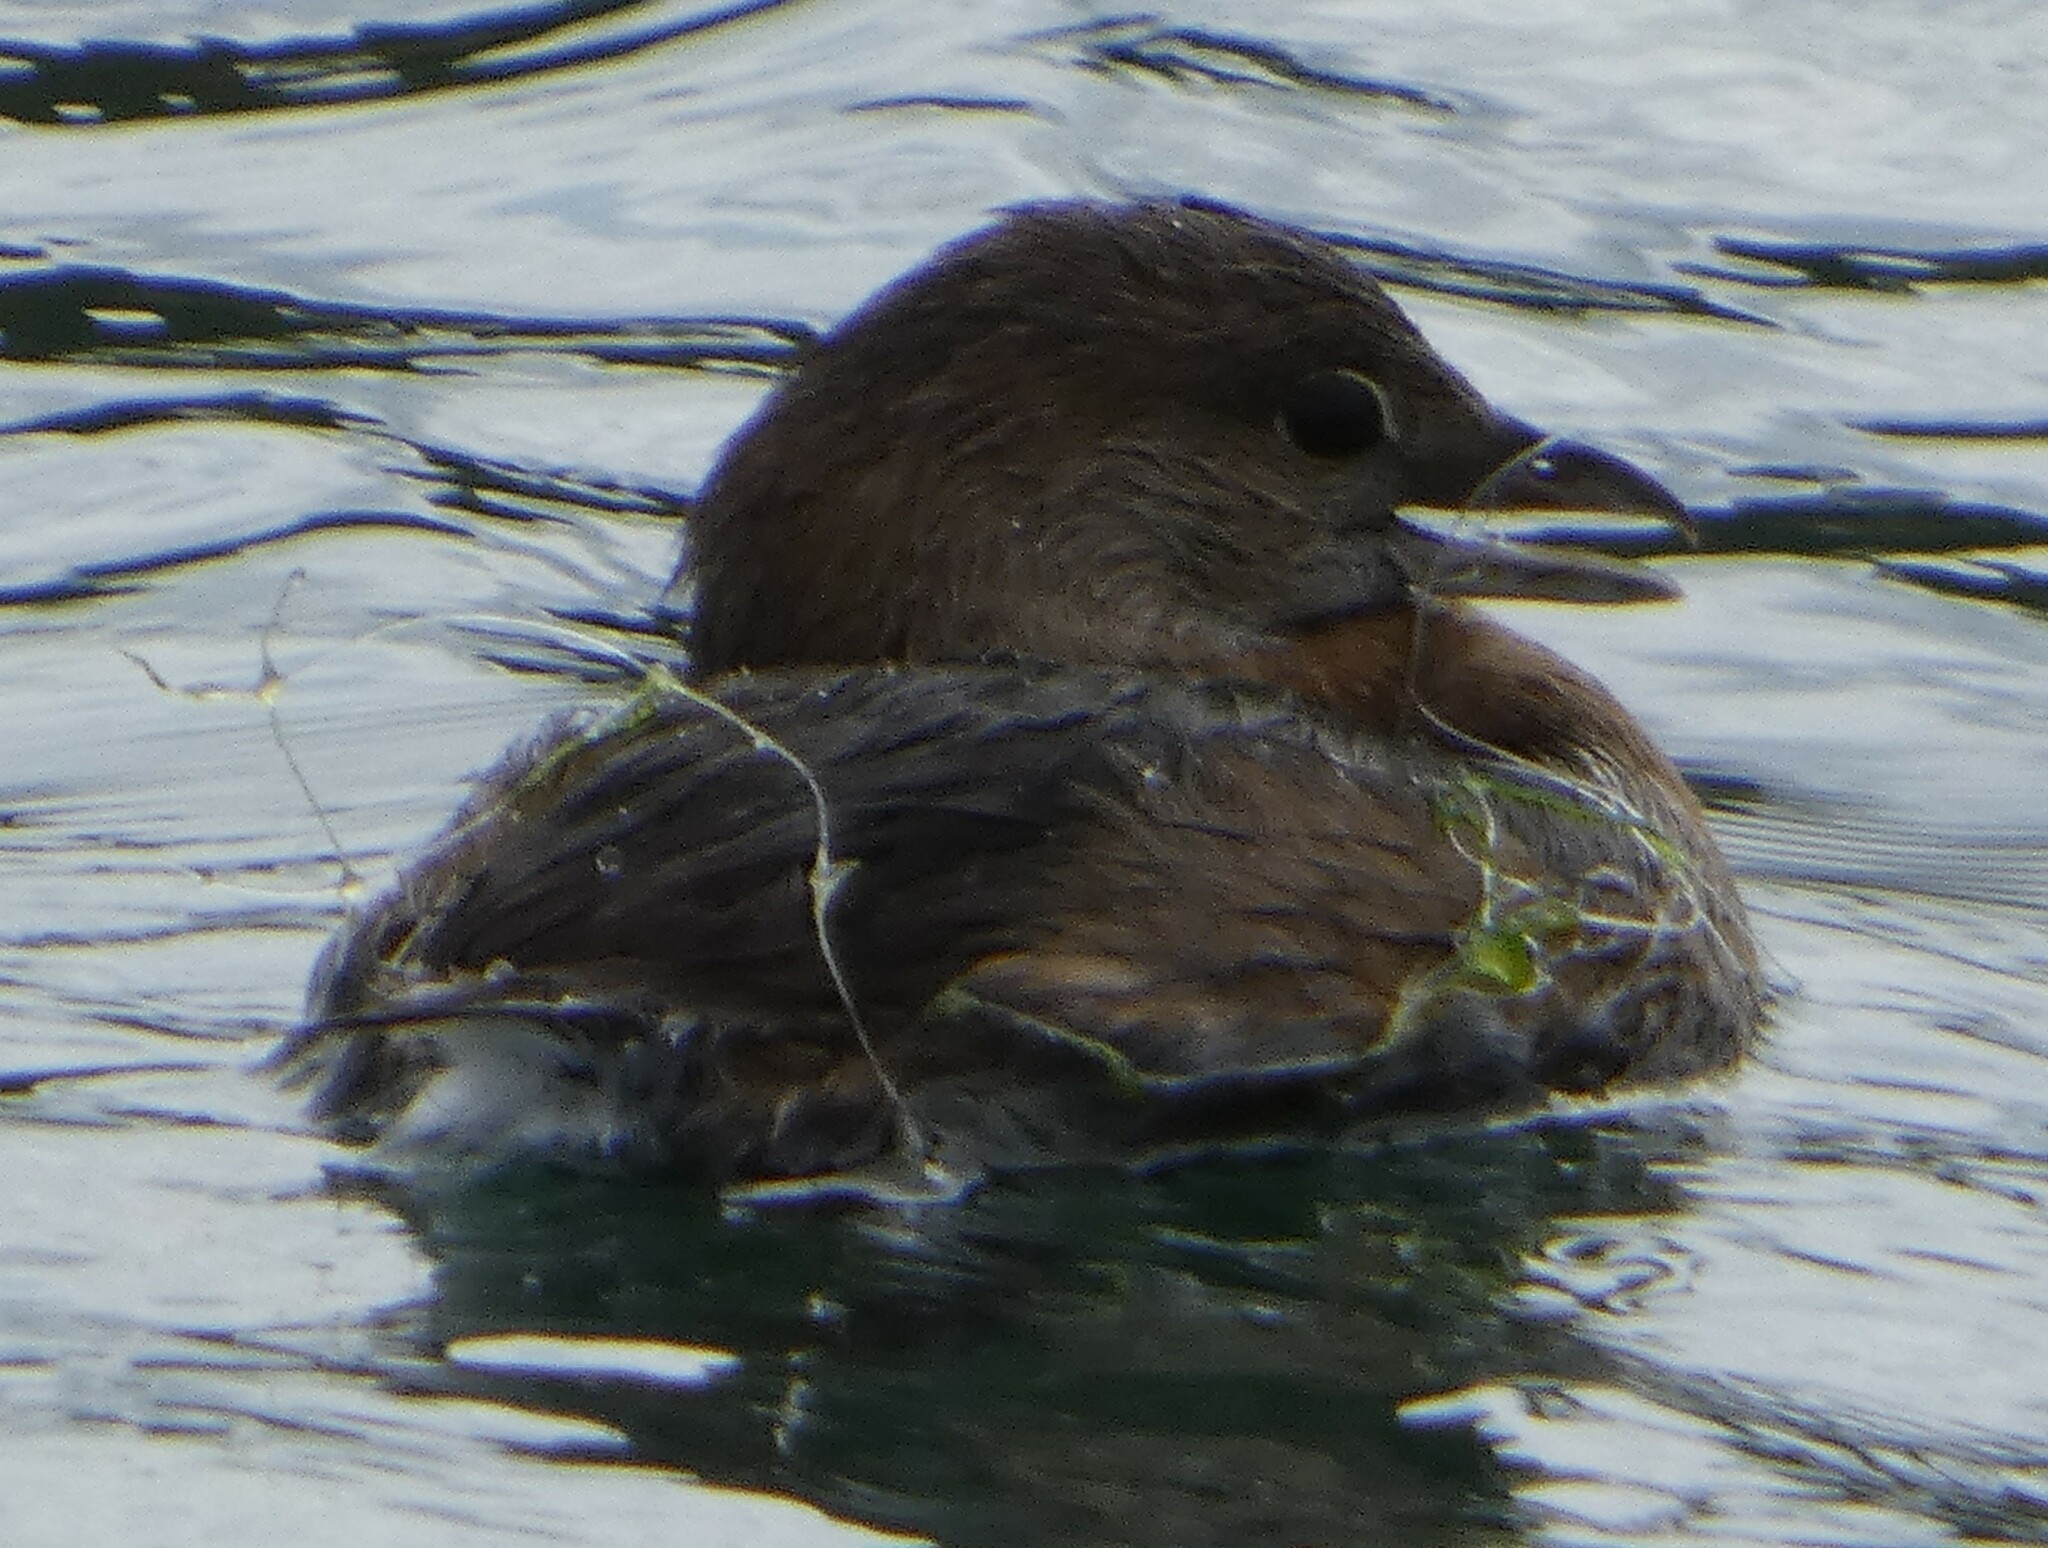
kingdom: Animalia
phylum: Chordata
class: Aves
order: Podicipediformes
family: Podicipedidae
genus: Podilymbus
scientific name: Podilymbus podiceps
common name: Pied-billed grebe
